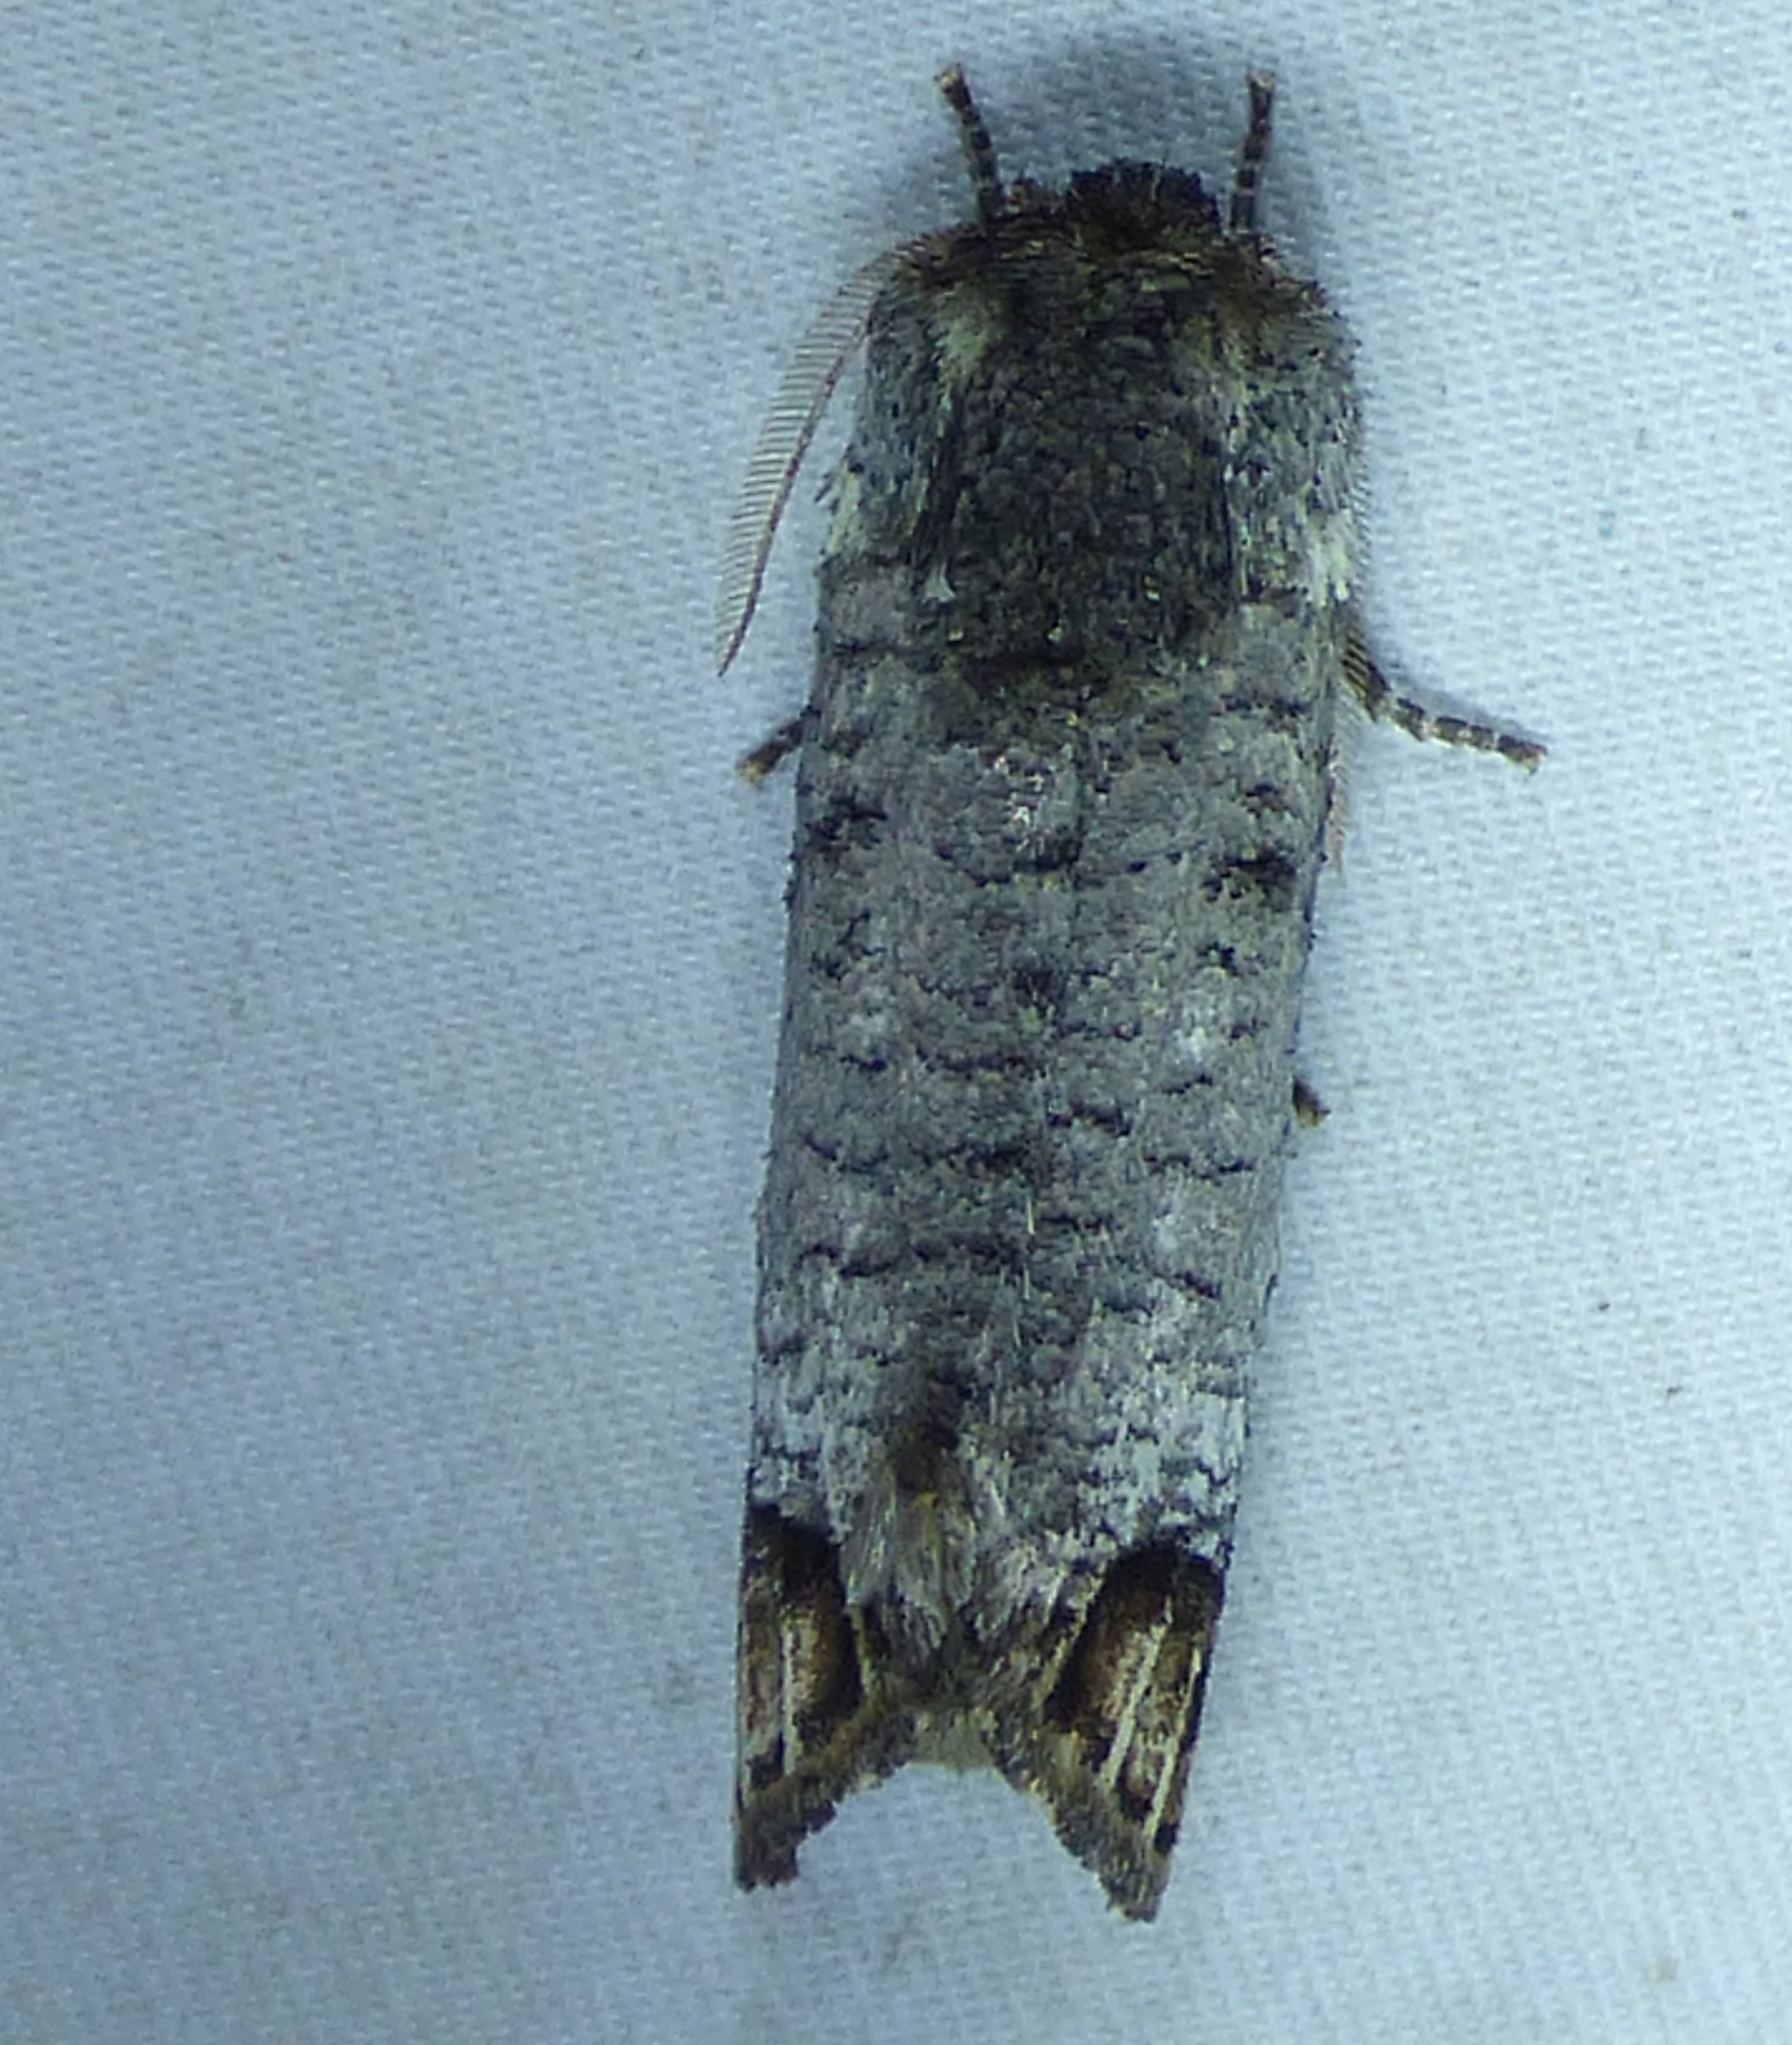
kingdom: Animalia
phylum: Arthropoda
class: Insecta
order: Lepidoptera
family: Cossidae
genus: Cossula
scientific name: Cossula magnifica
